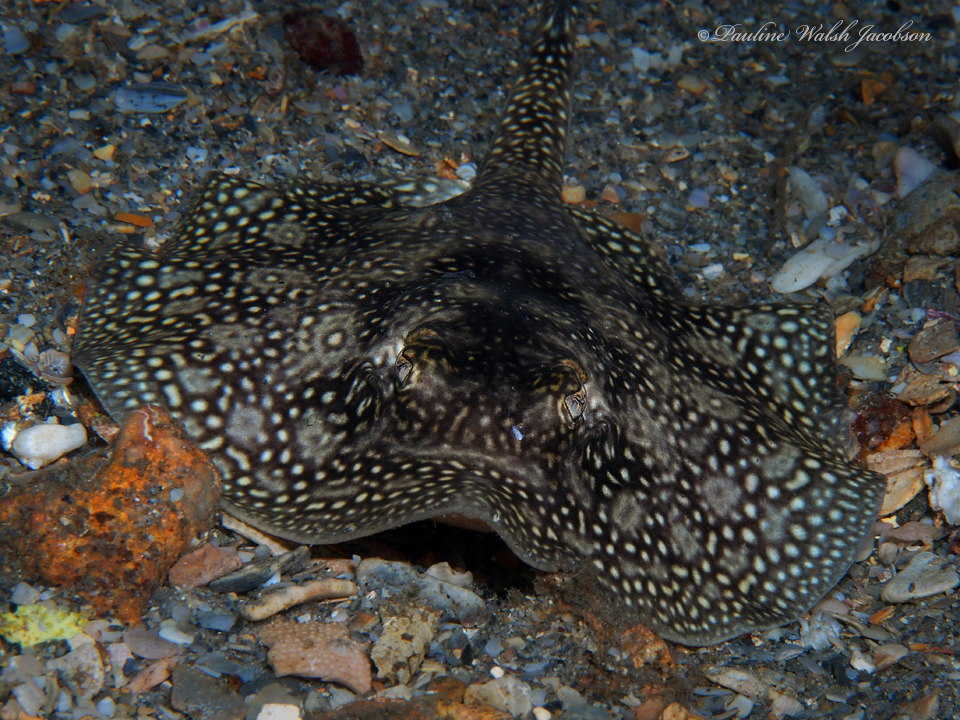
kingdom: Animalia
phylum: Chordata
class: Elasmobranchii
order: Myliobatiformes
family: Urotrygonidae
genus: Urobatis
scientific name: Urobatis jamaicensis
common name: Yellow stingray
